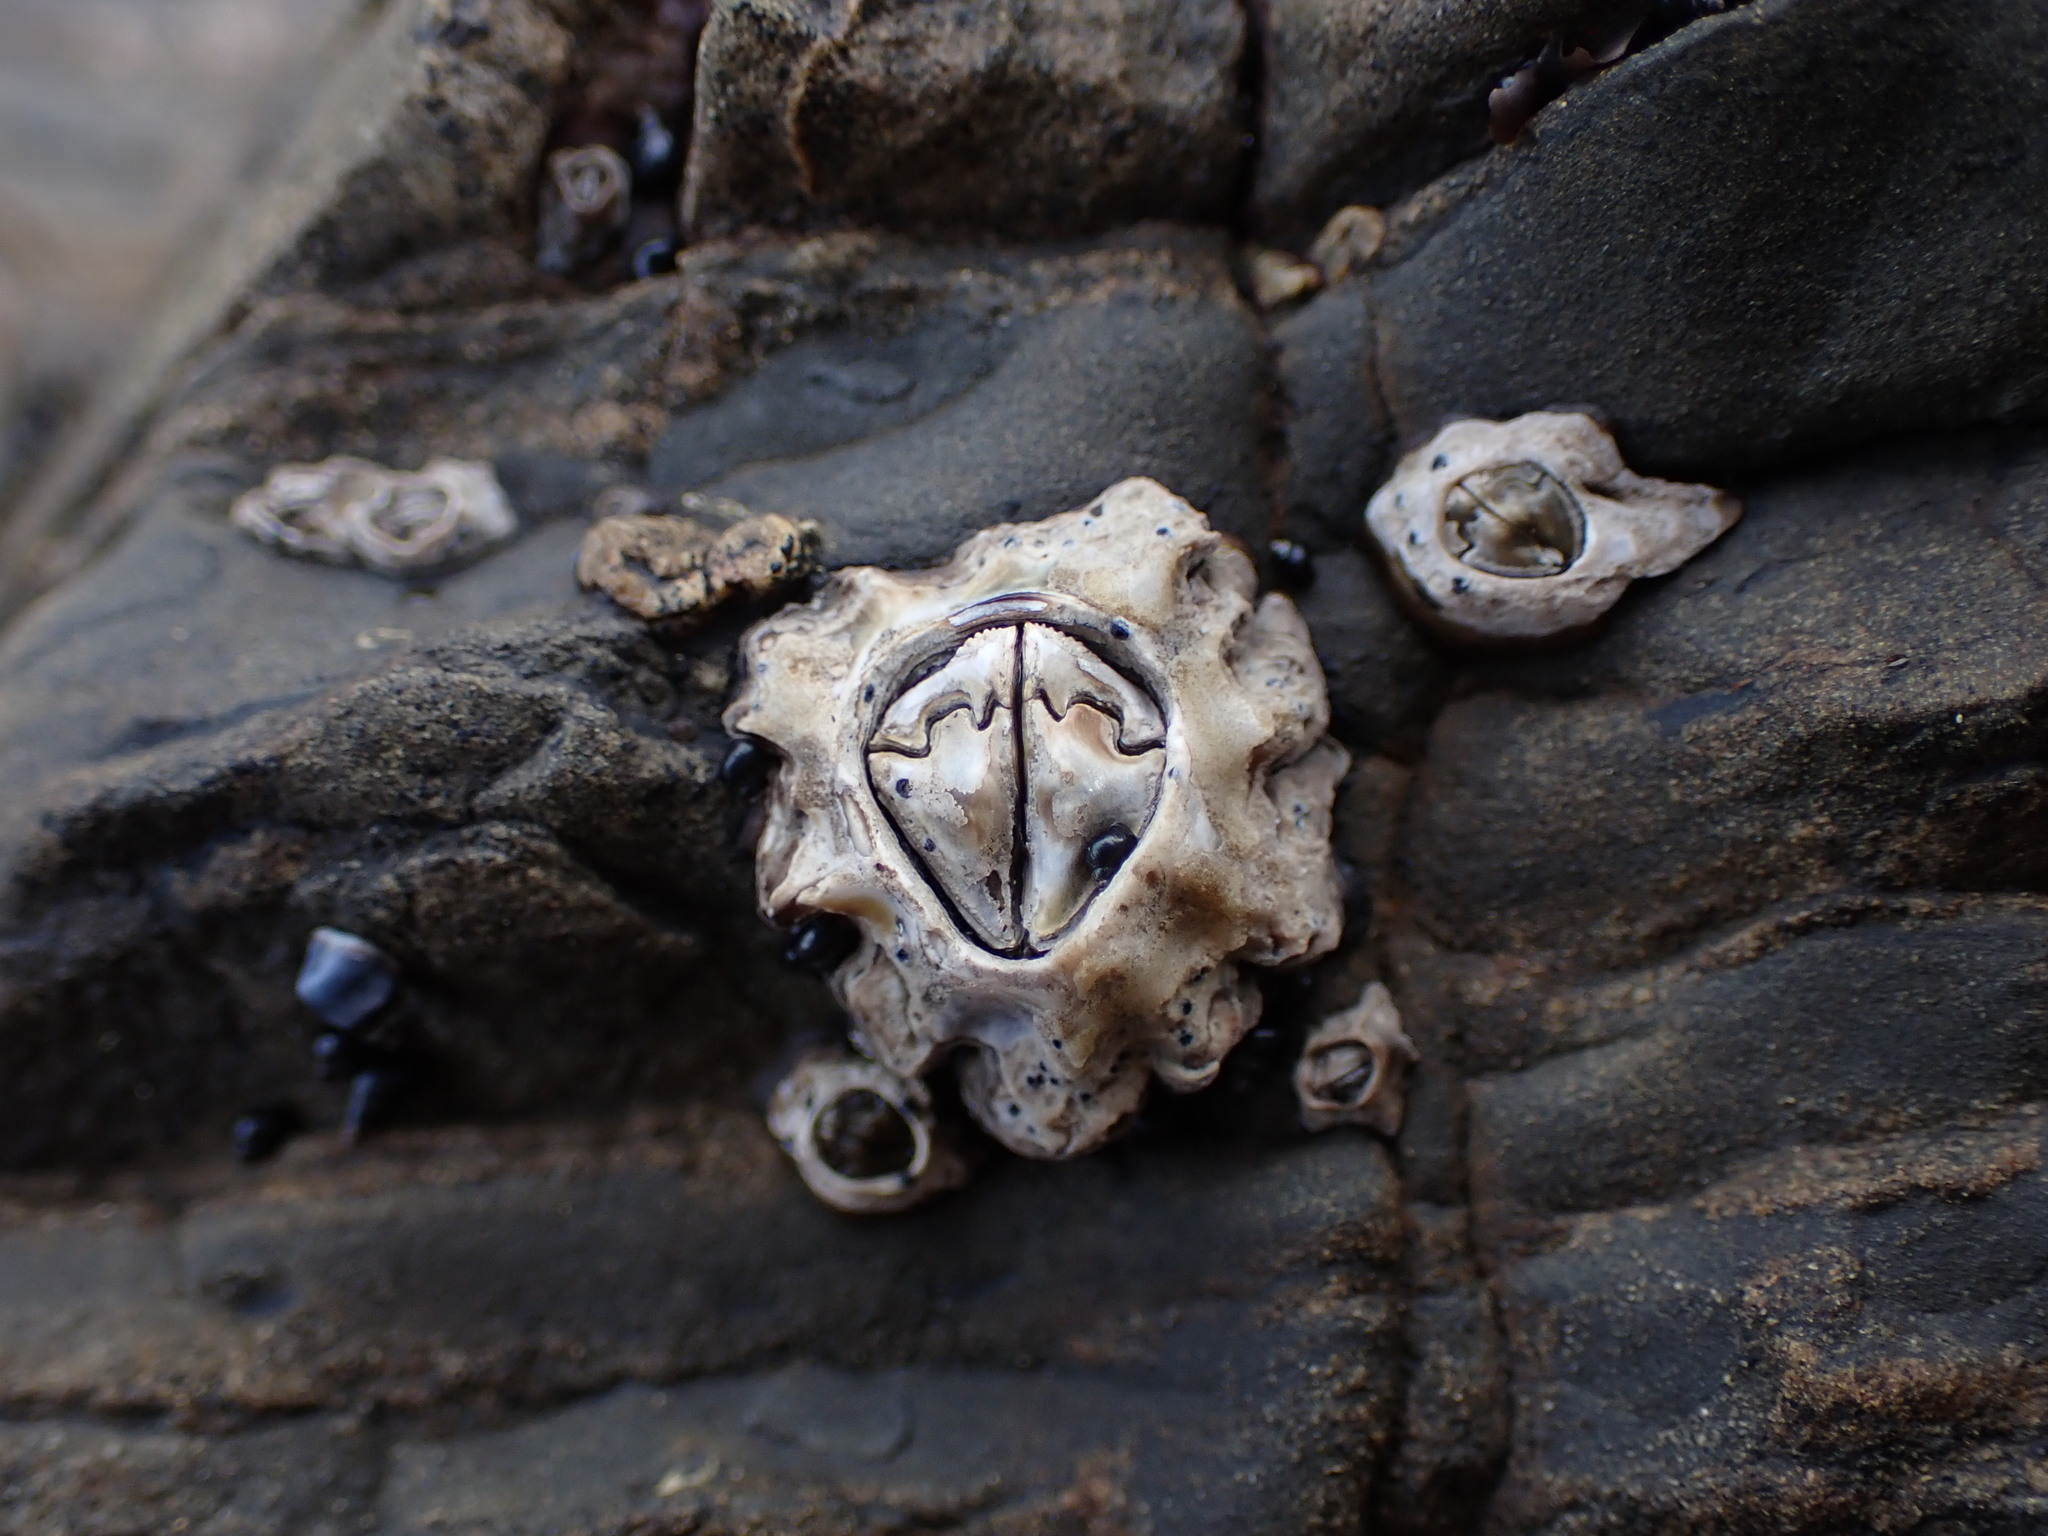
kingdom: Animalia
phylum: Arthropoda
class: Maxillopoda
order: Sessilia
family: Chthamalidae
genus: Chamaesipho
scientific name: Chamaesipho brunnea
